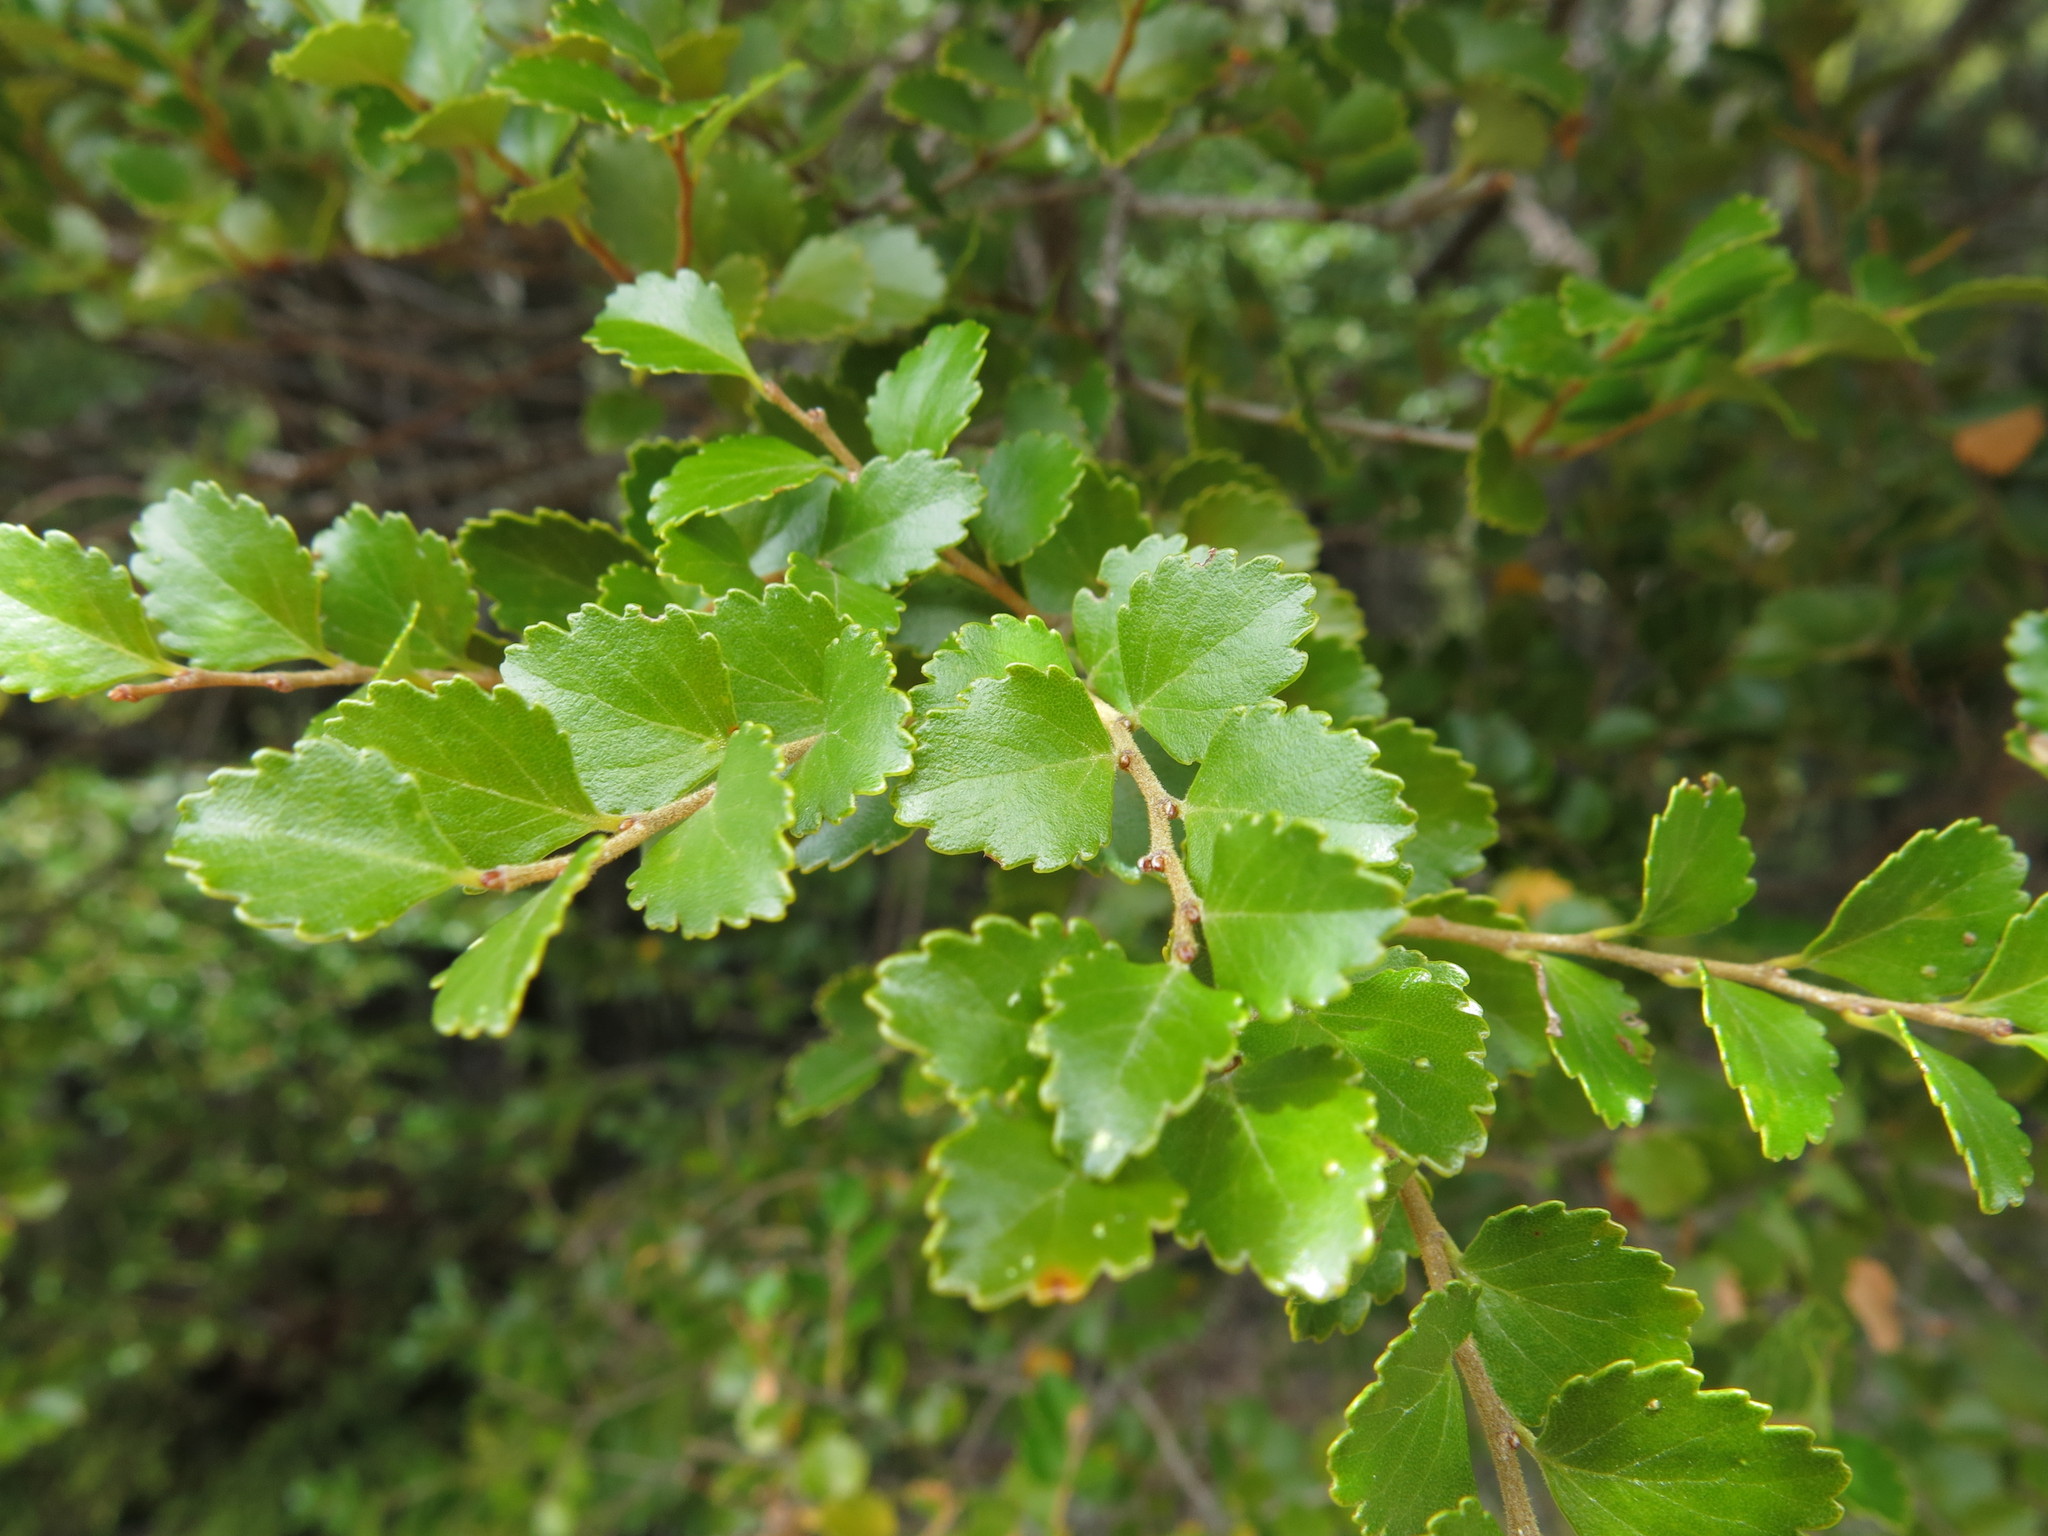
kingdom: Plantae
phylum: Tracheophyta
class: Magnoliopsida
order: Fagales
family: Nothofagaceae
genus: Nothofagus
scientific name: Nothofagus menziesii
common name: Silver beech
